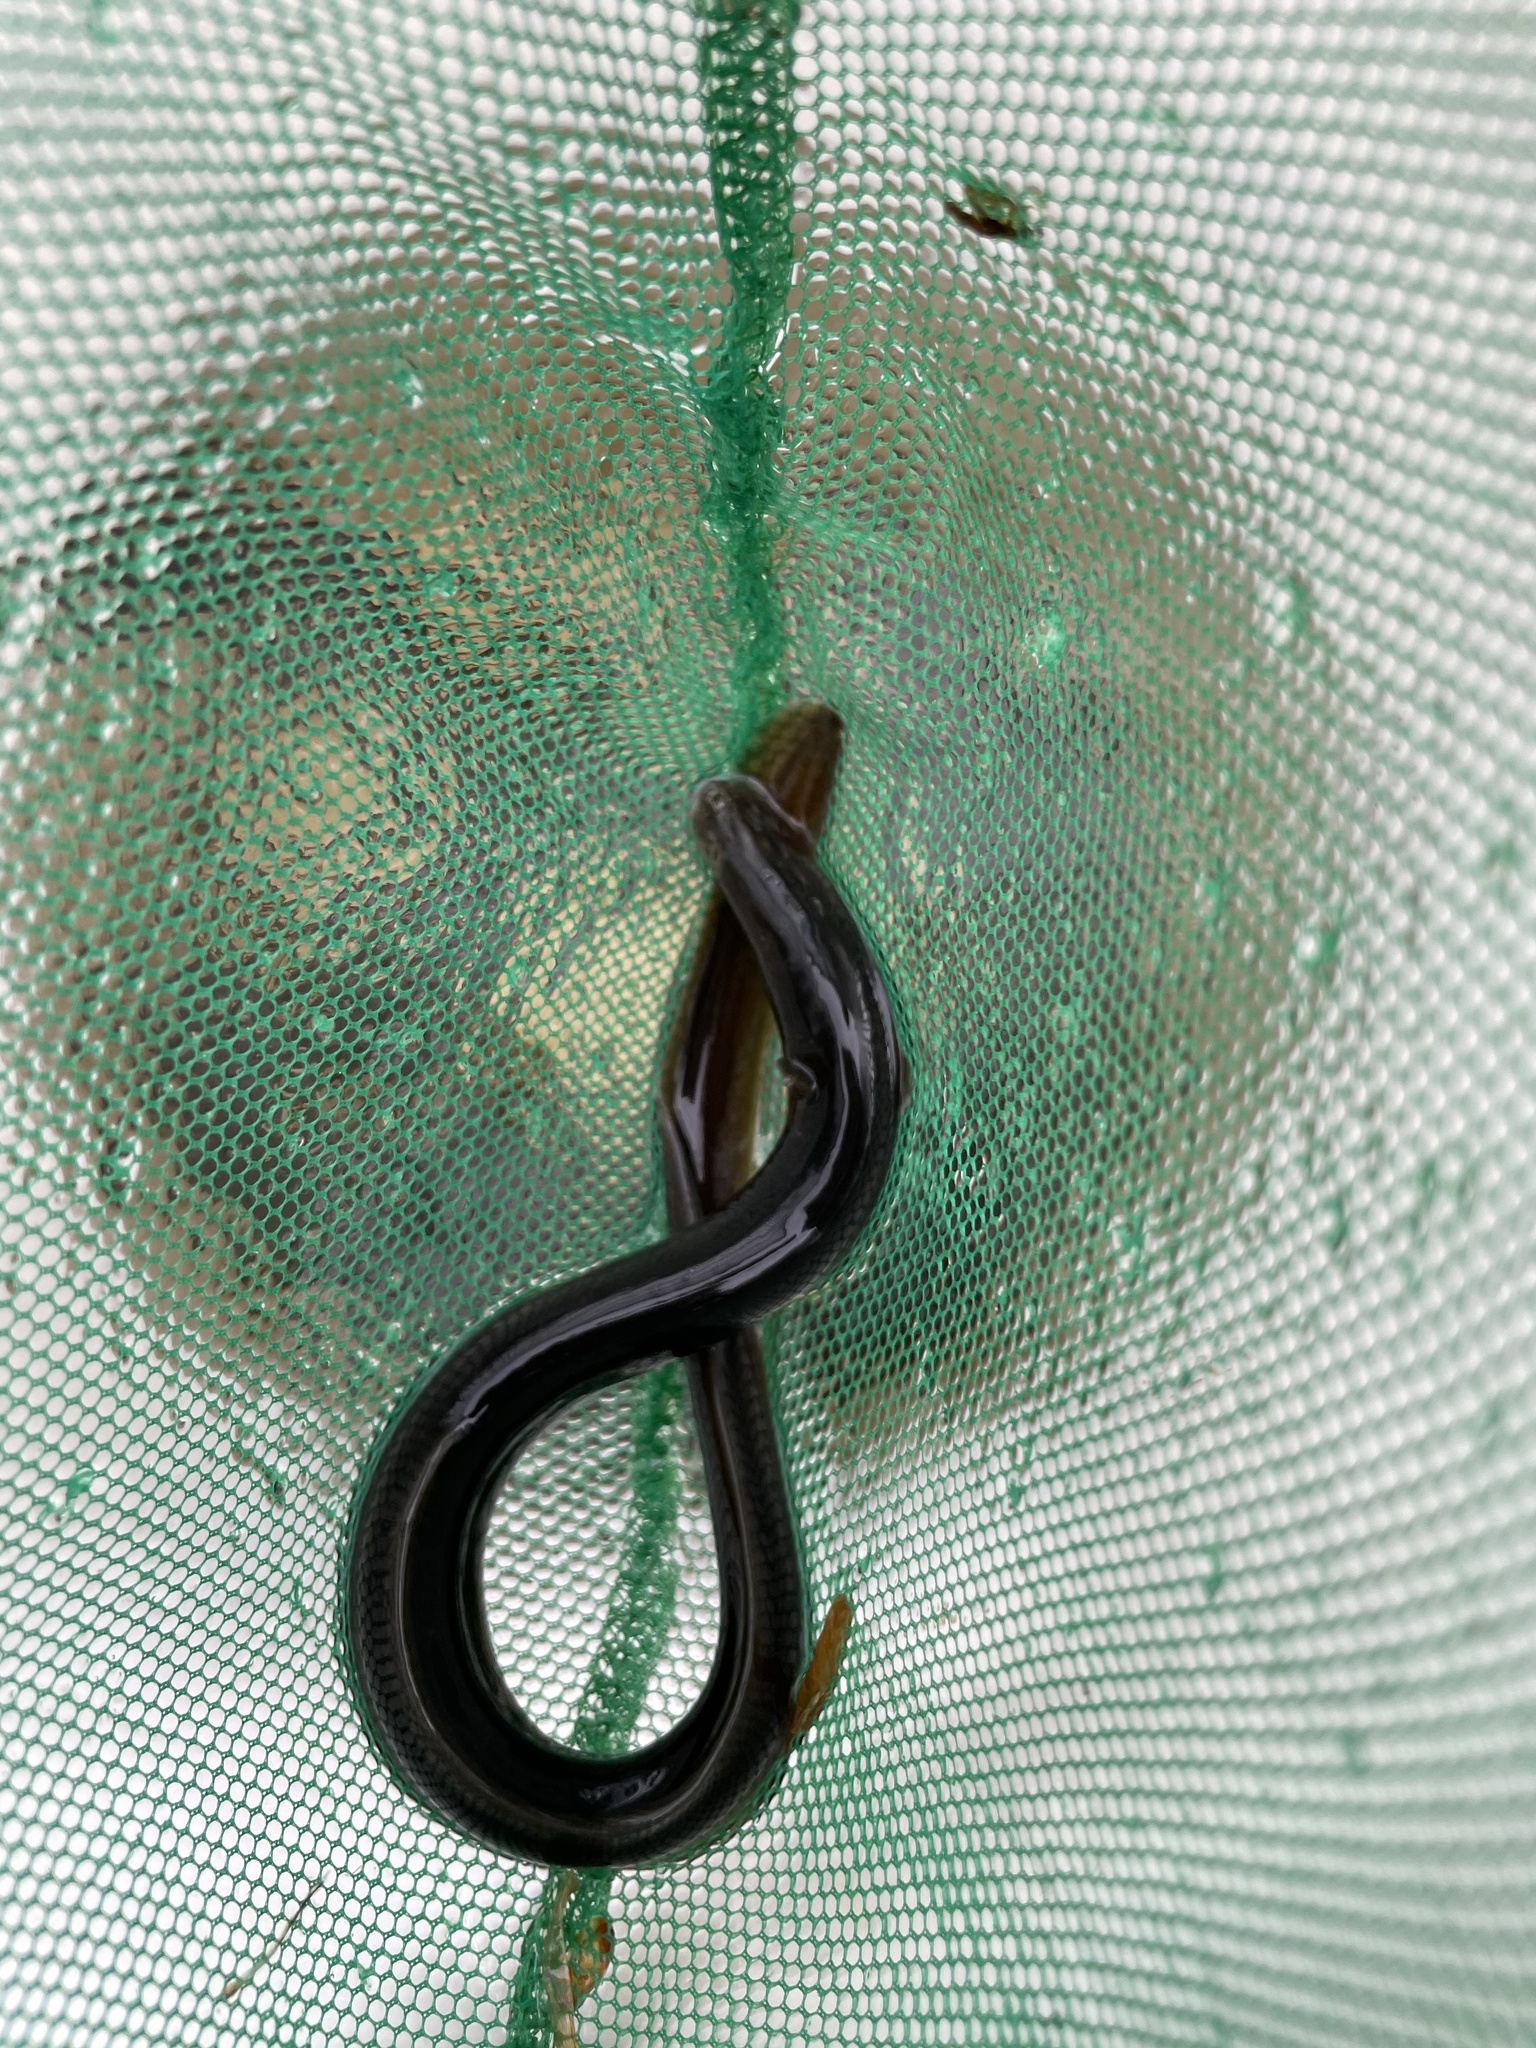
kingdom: Animalia
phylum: Chordata
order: Anguilliformes
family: Anguillidae
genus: Anguilla
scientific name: Anguilla rostrata
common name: American eel
